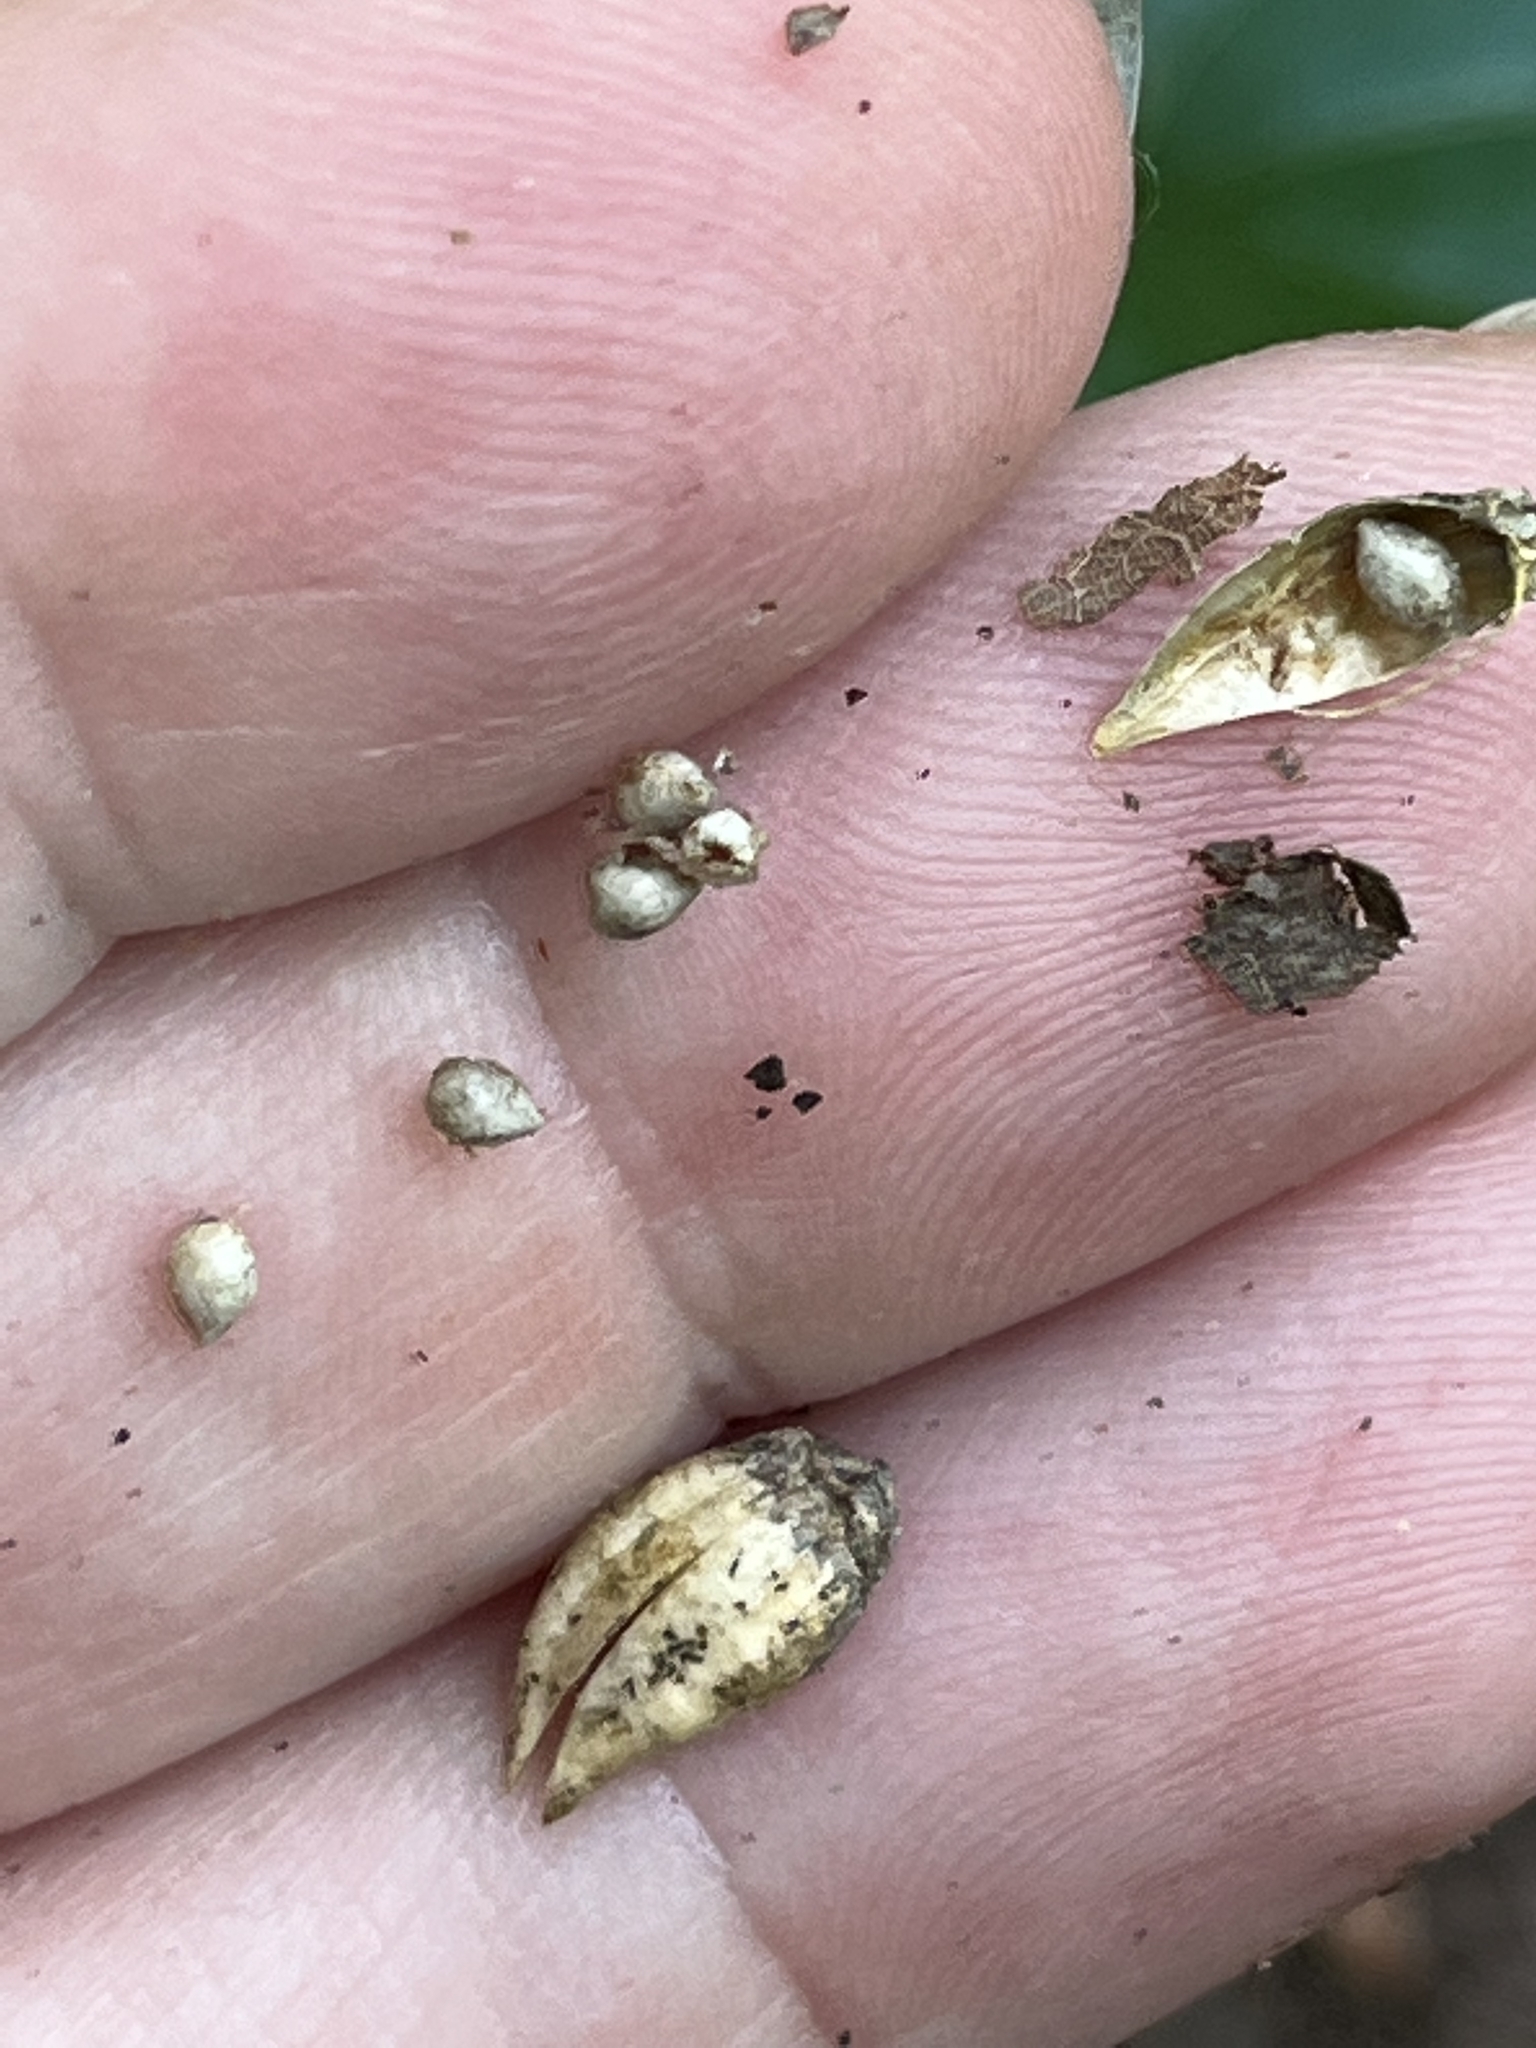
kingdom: Plantae
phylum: Tracheophyta
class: Magnoliopsida
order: Malpighiales
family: Violaceae
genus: Viola
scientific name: Viola glaberrima
